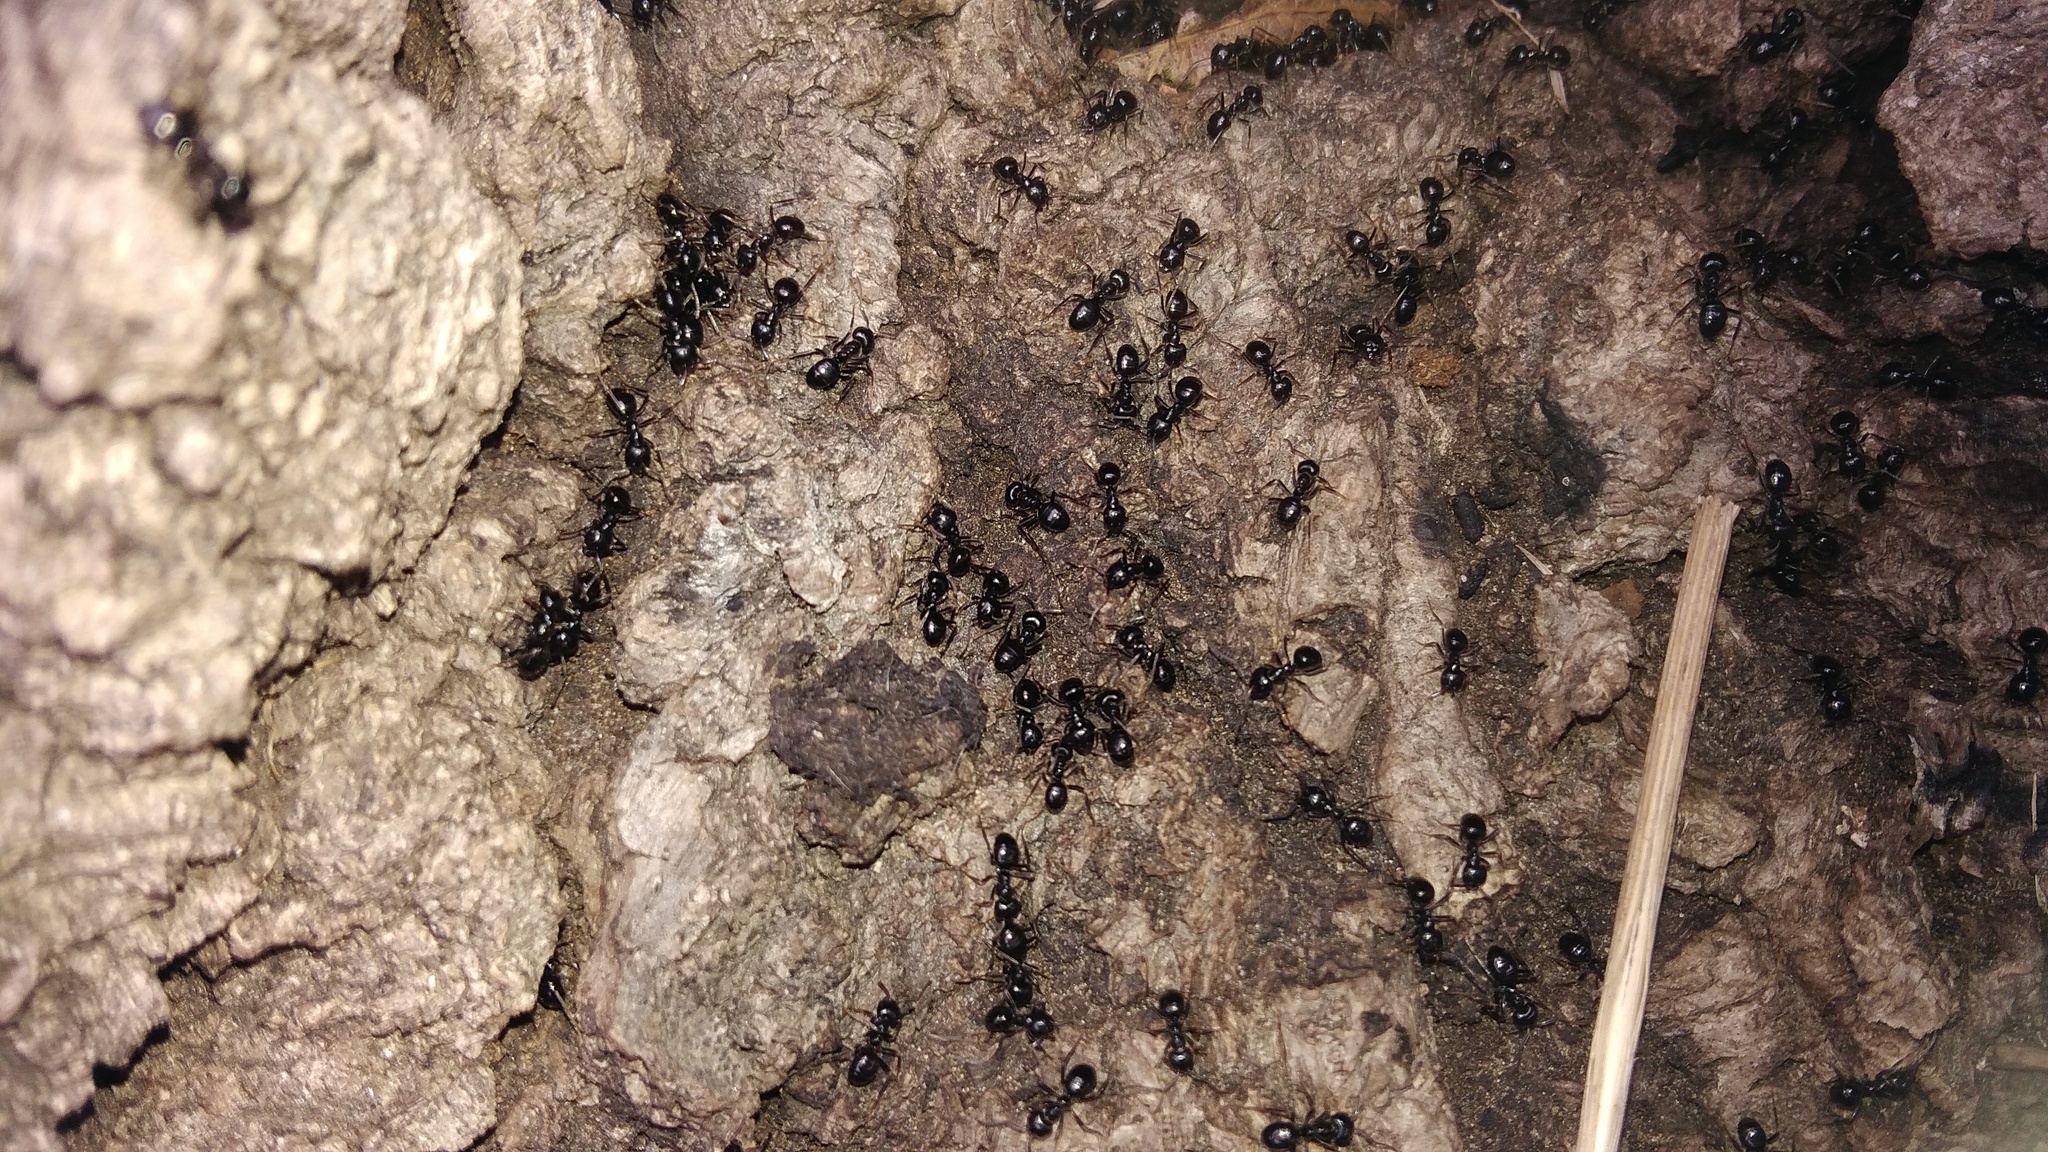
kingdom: Animalia
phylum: Arthropoda
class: Insecta
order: Hymenoptera
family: Formicidae
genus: Lasius
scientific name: Lasius fuliginosus
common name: Jet ant
